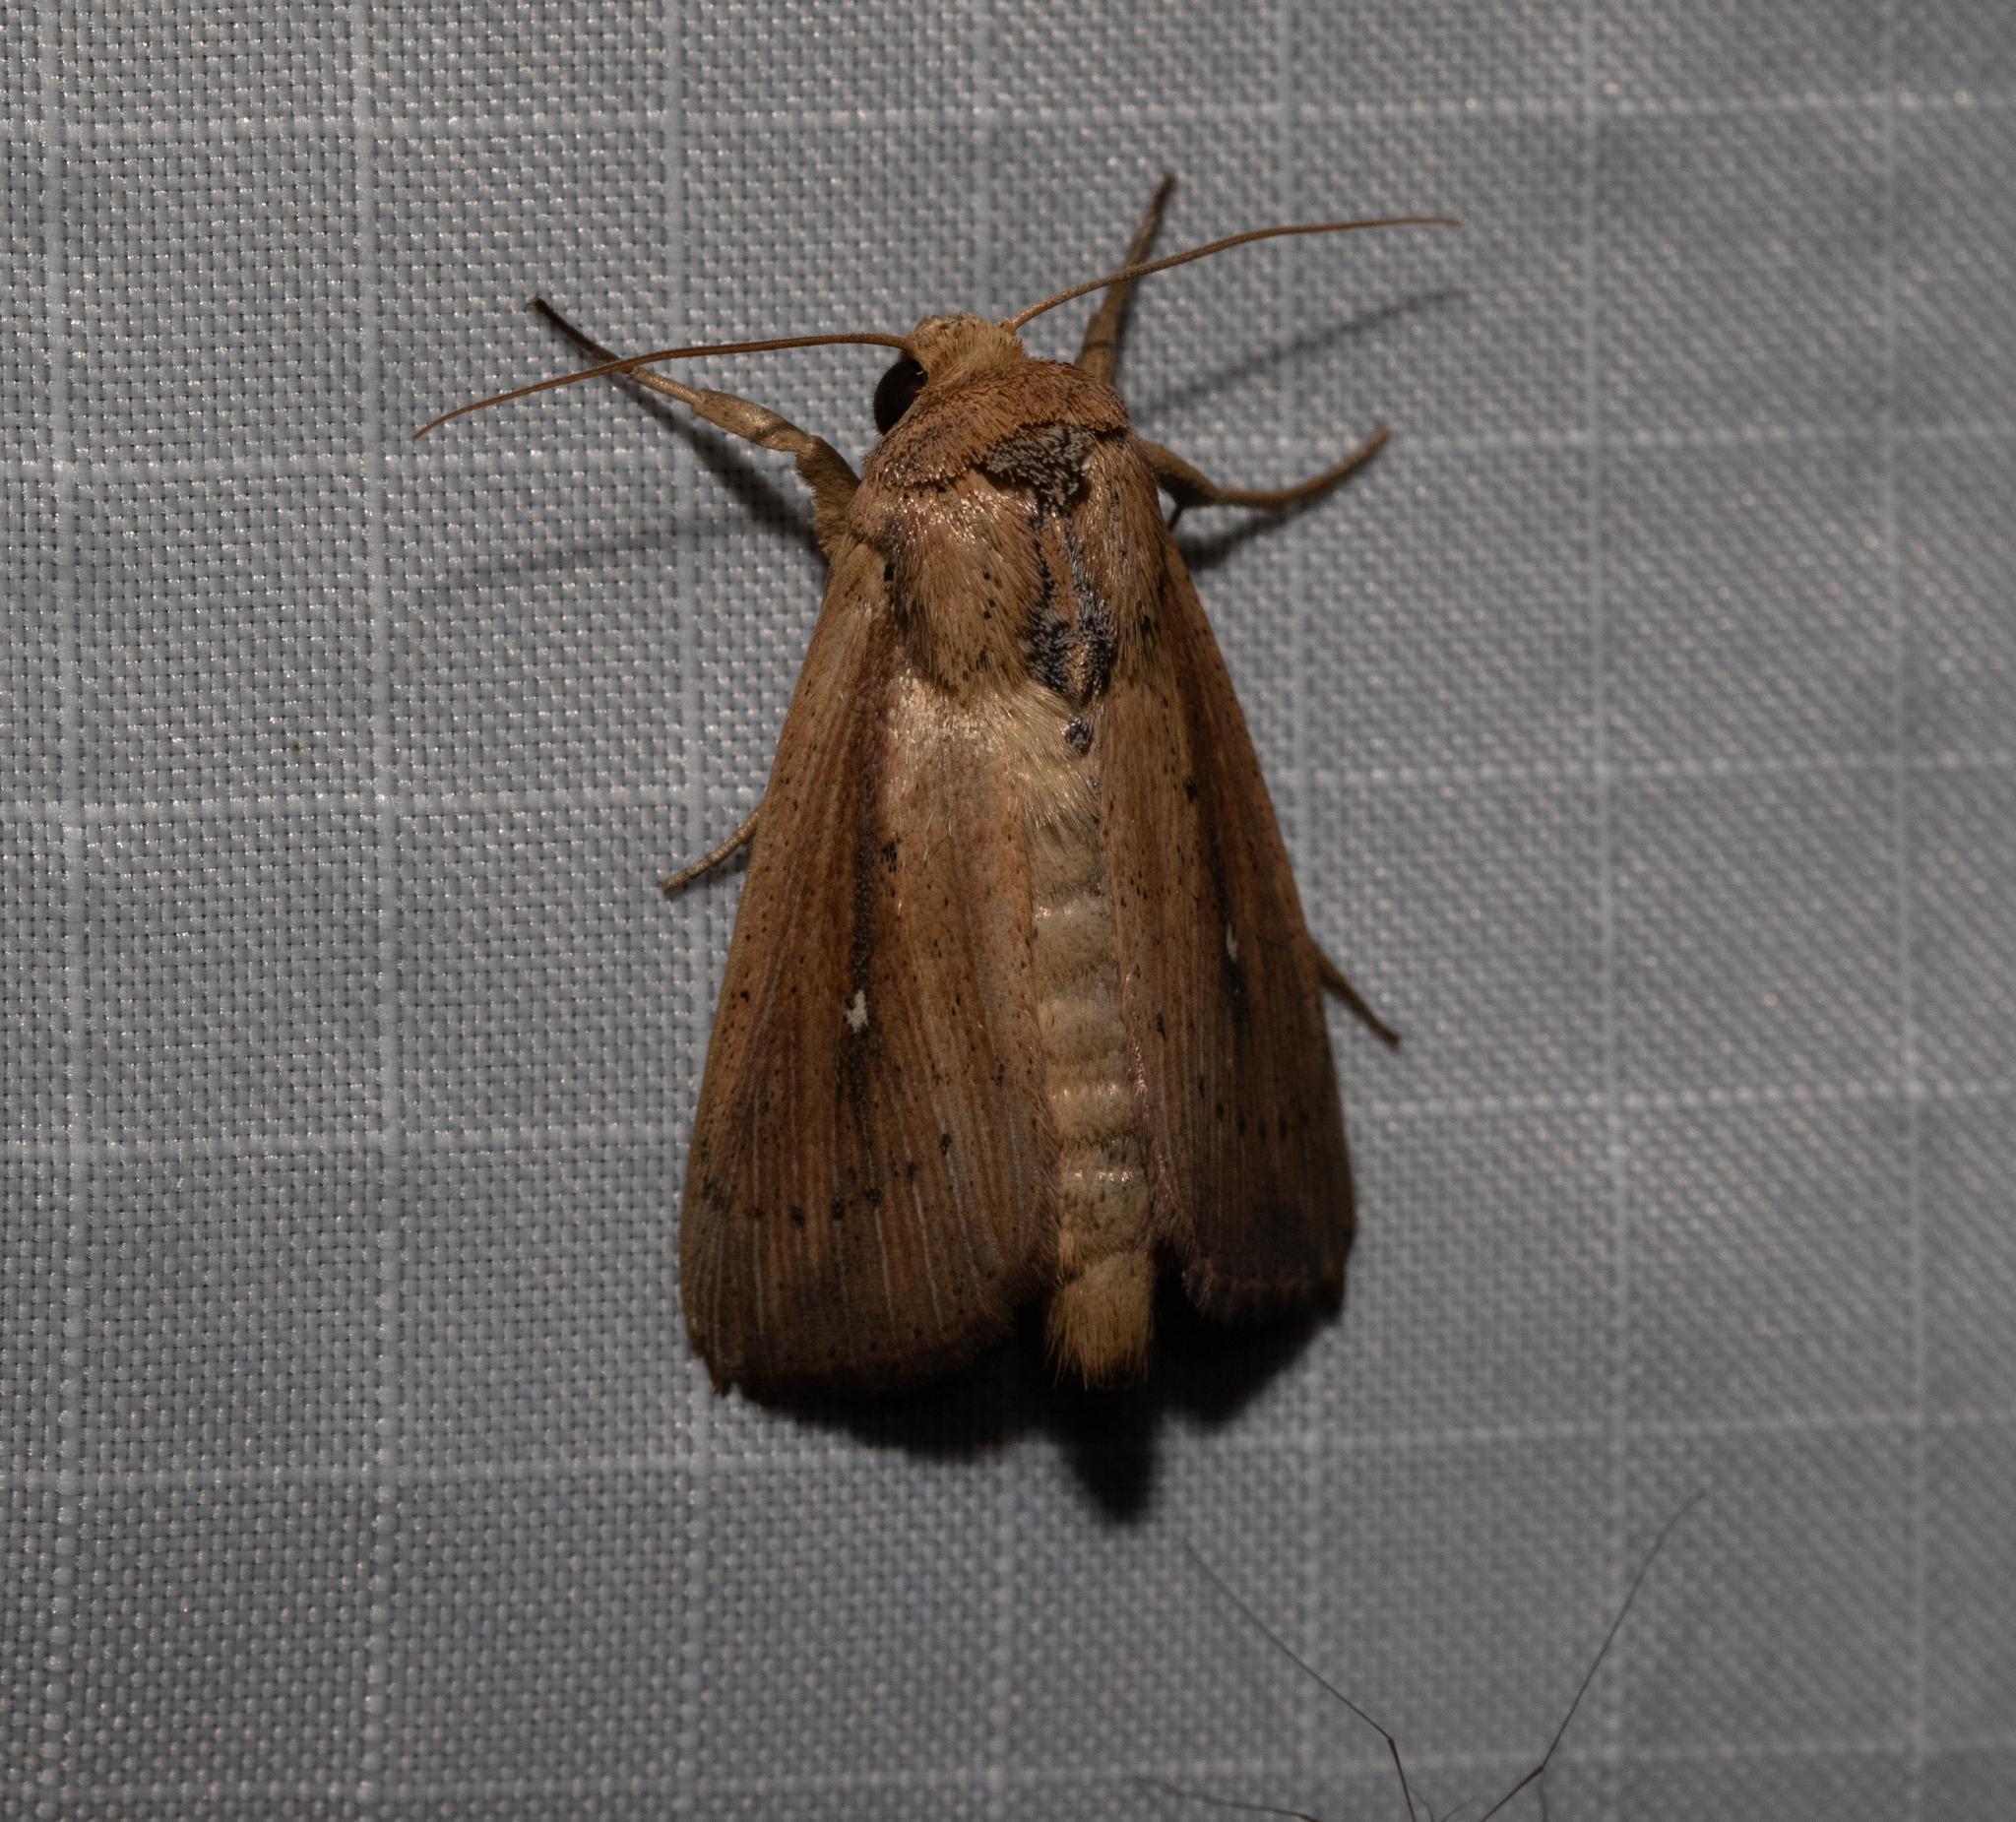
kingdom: Animalia
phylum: Arthropoda
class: Insecta
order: Lepidoptera
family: Noctuidae
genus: Leucania
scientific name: Leucania scirpicola
